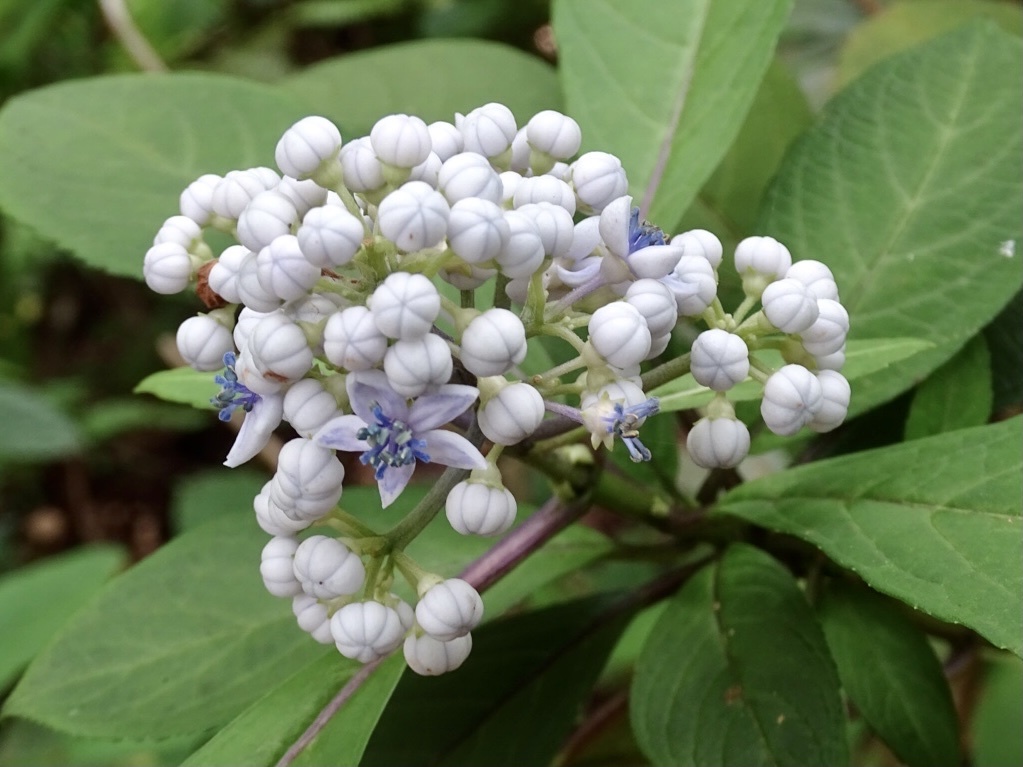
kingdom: Plantae
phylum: Tracheophyta
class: Magnoliopsida
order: Cornales
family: Hydrangeaceae
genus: Hydrangea
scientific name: Hydrangea febrifuga
